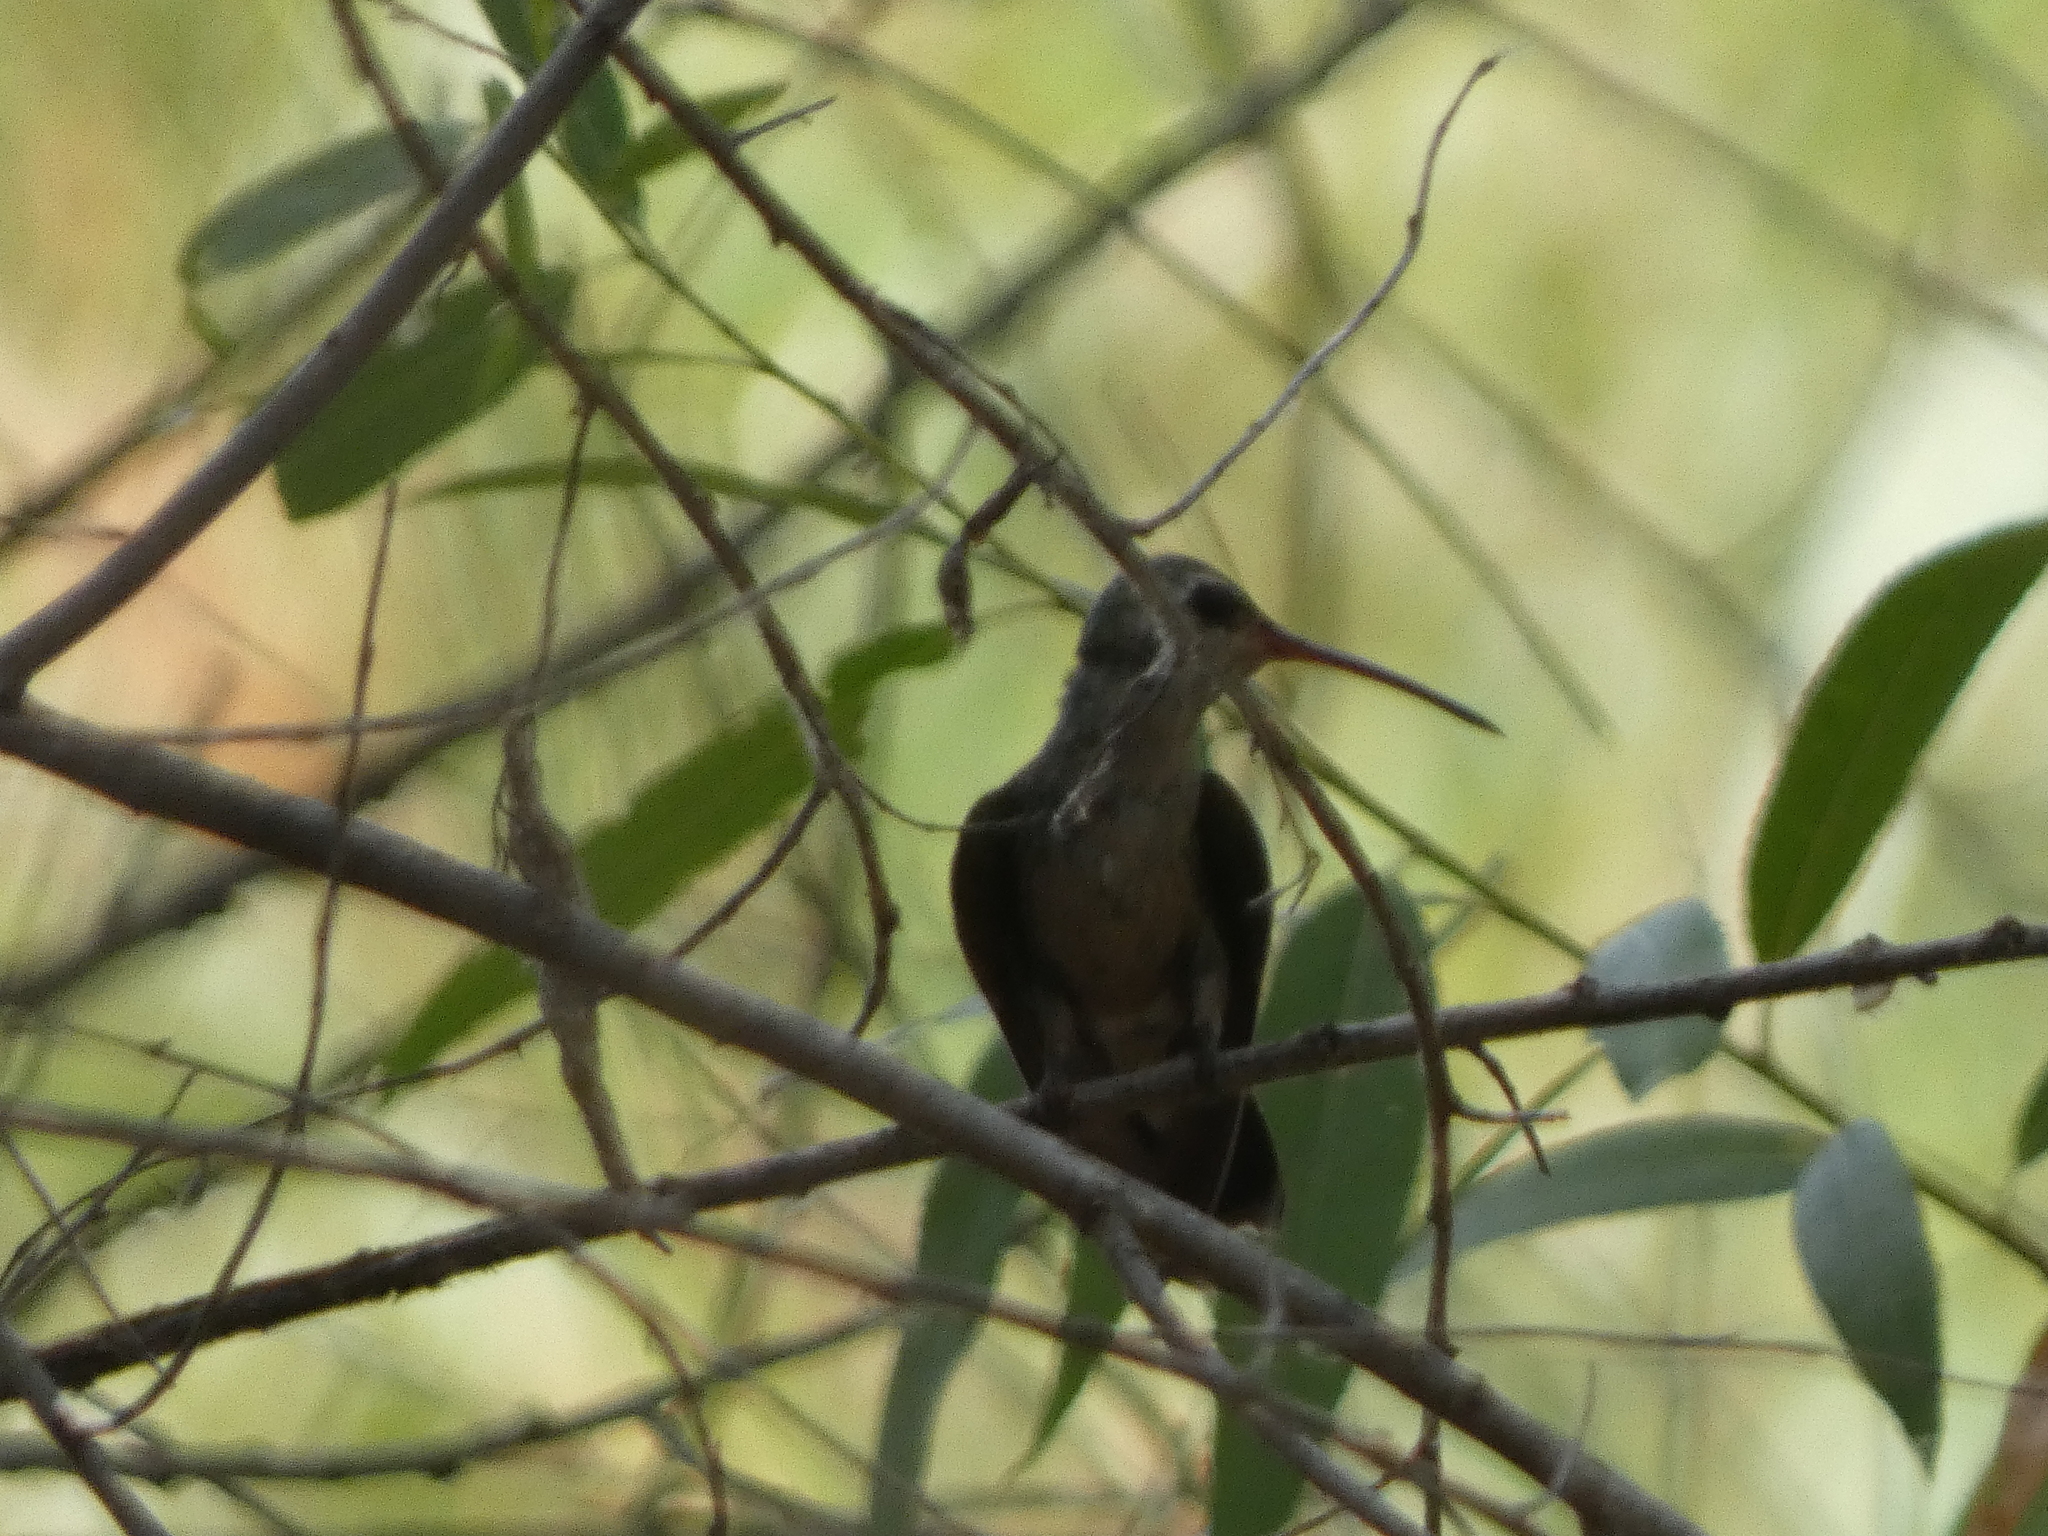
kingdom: Animalia
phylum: Chordata
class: Aves
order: Apodiformes
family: Trochilidae
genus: Cynanthus
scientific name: Cynanthus latirostris
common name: Broad-billed hummingbird
